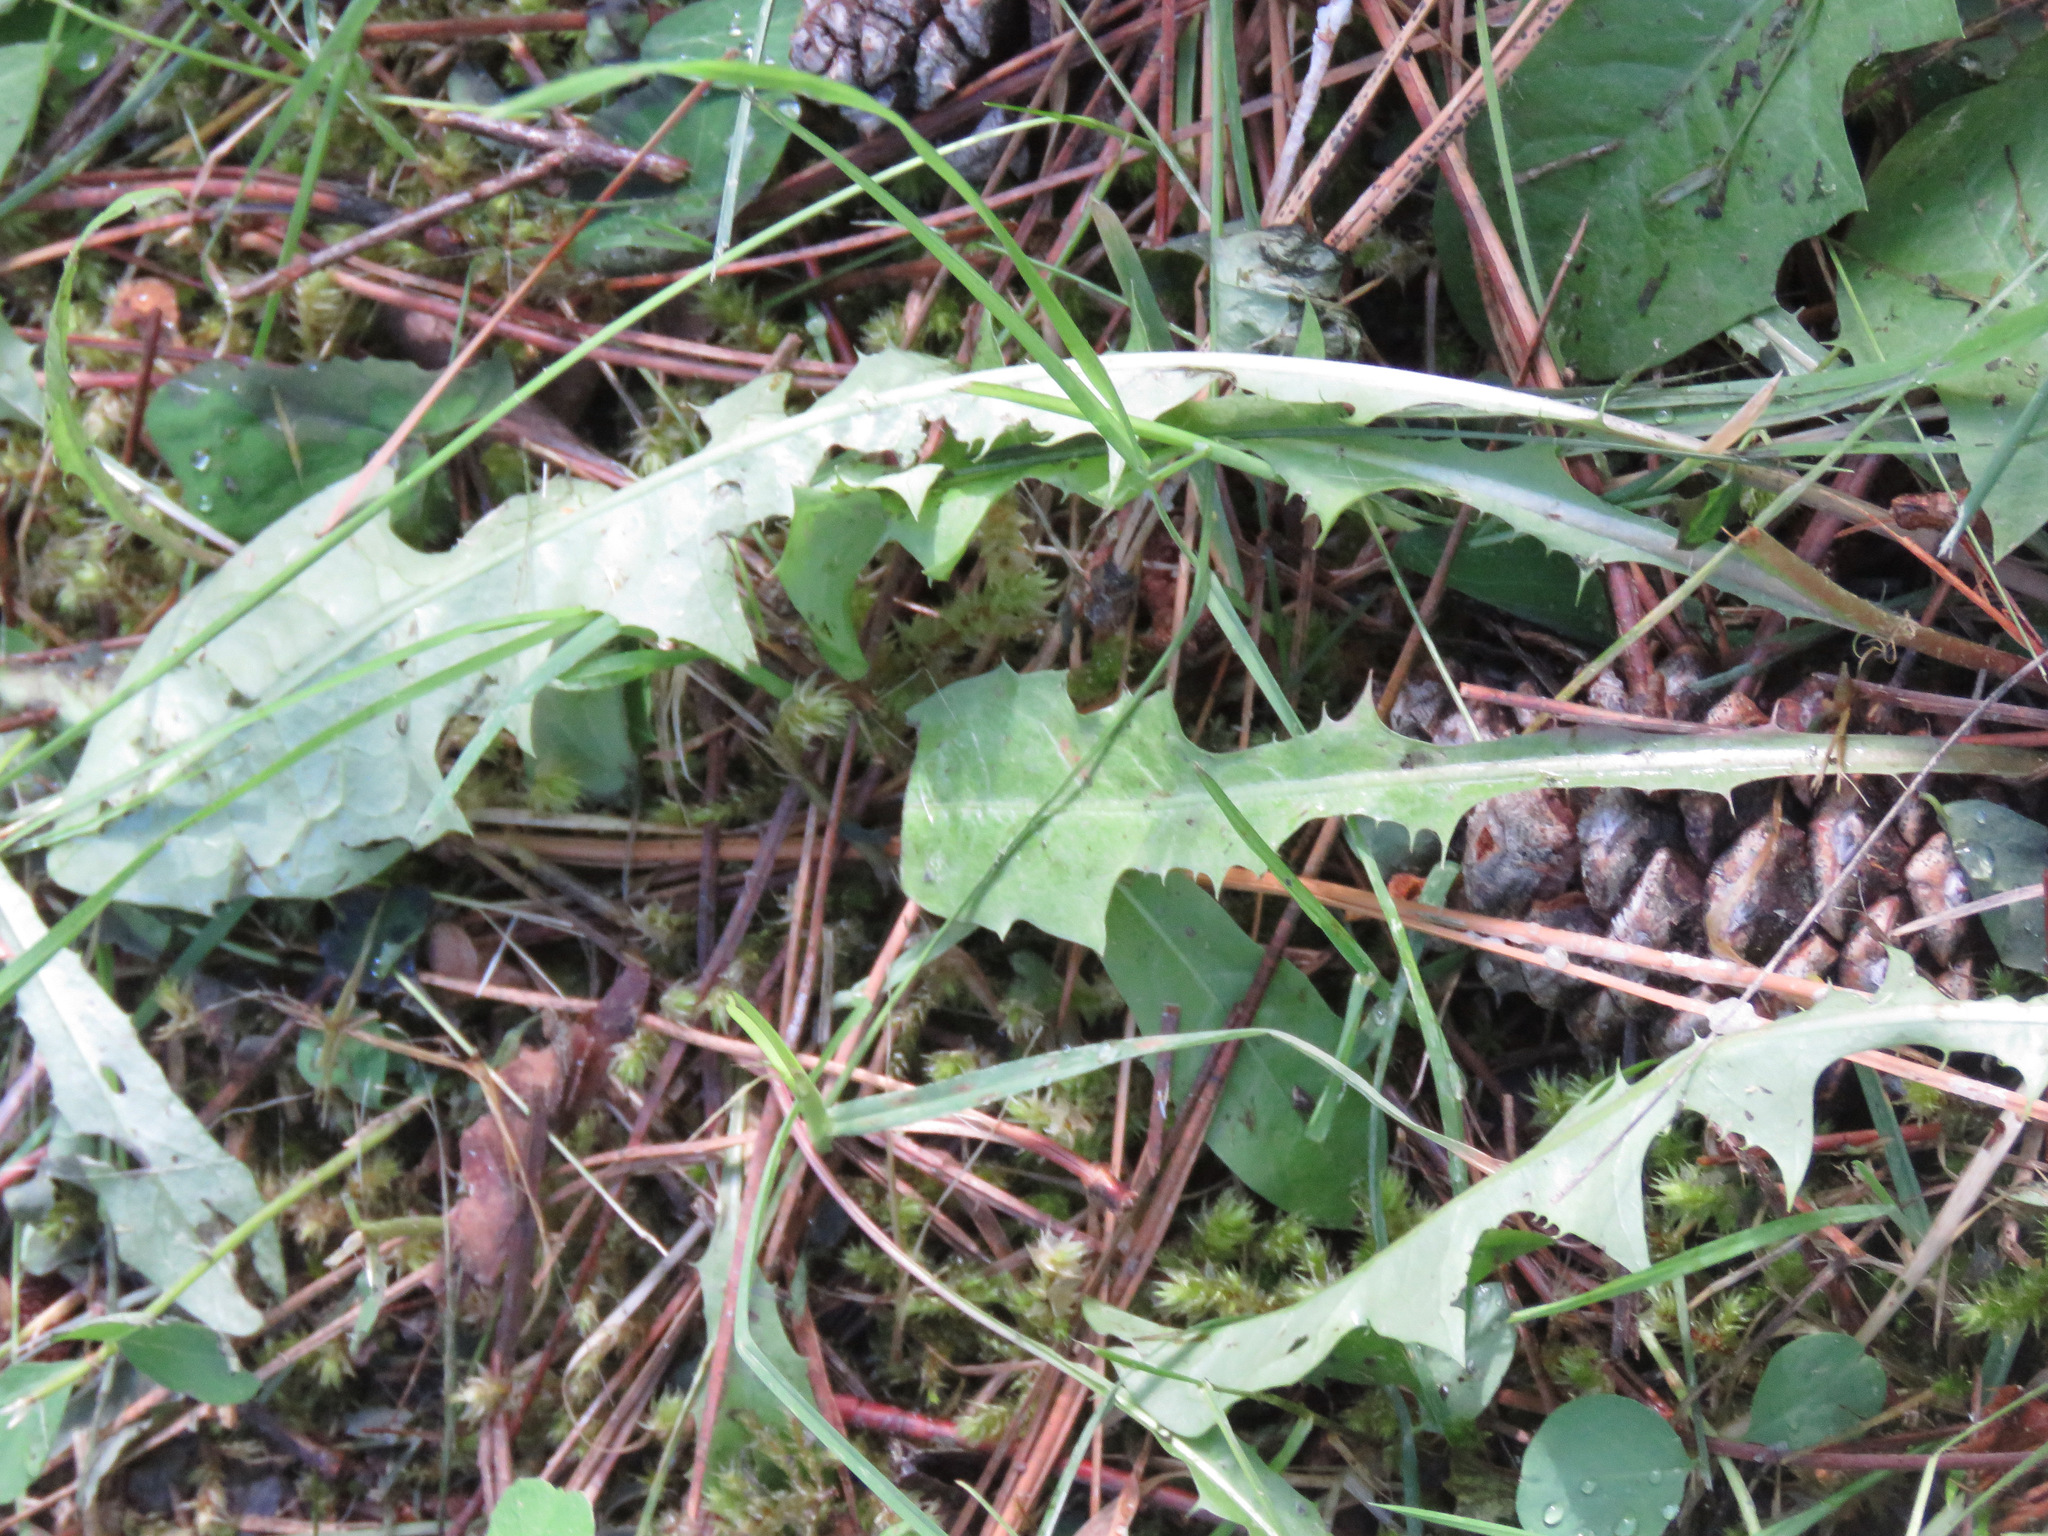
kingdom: Plantae
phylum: Tracheophyta
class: Magnoliopsida
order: Asterales
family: Asteraceae
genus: Taraxacum
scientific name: Taraxacum officinale
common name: Common dandelion
